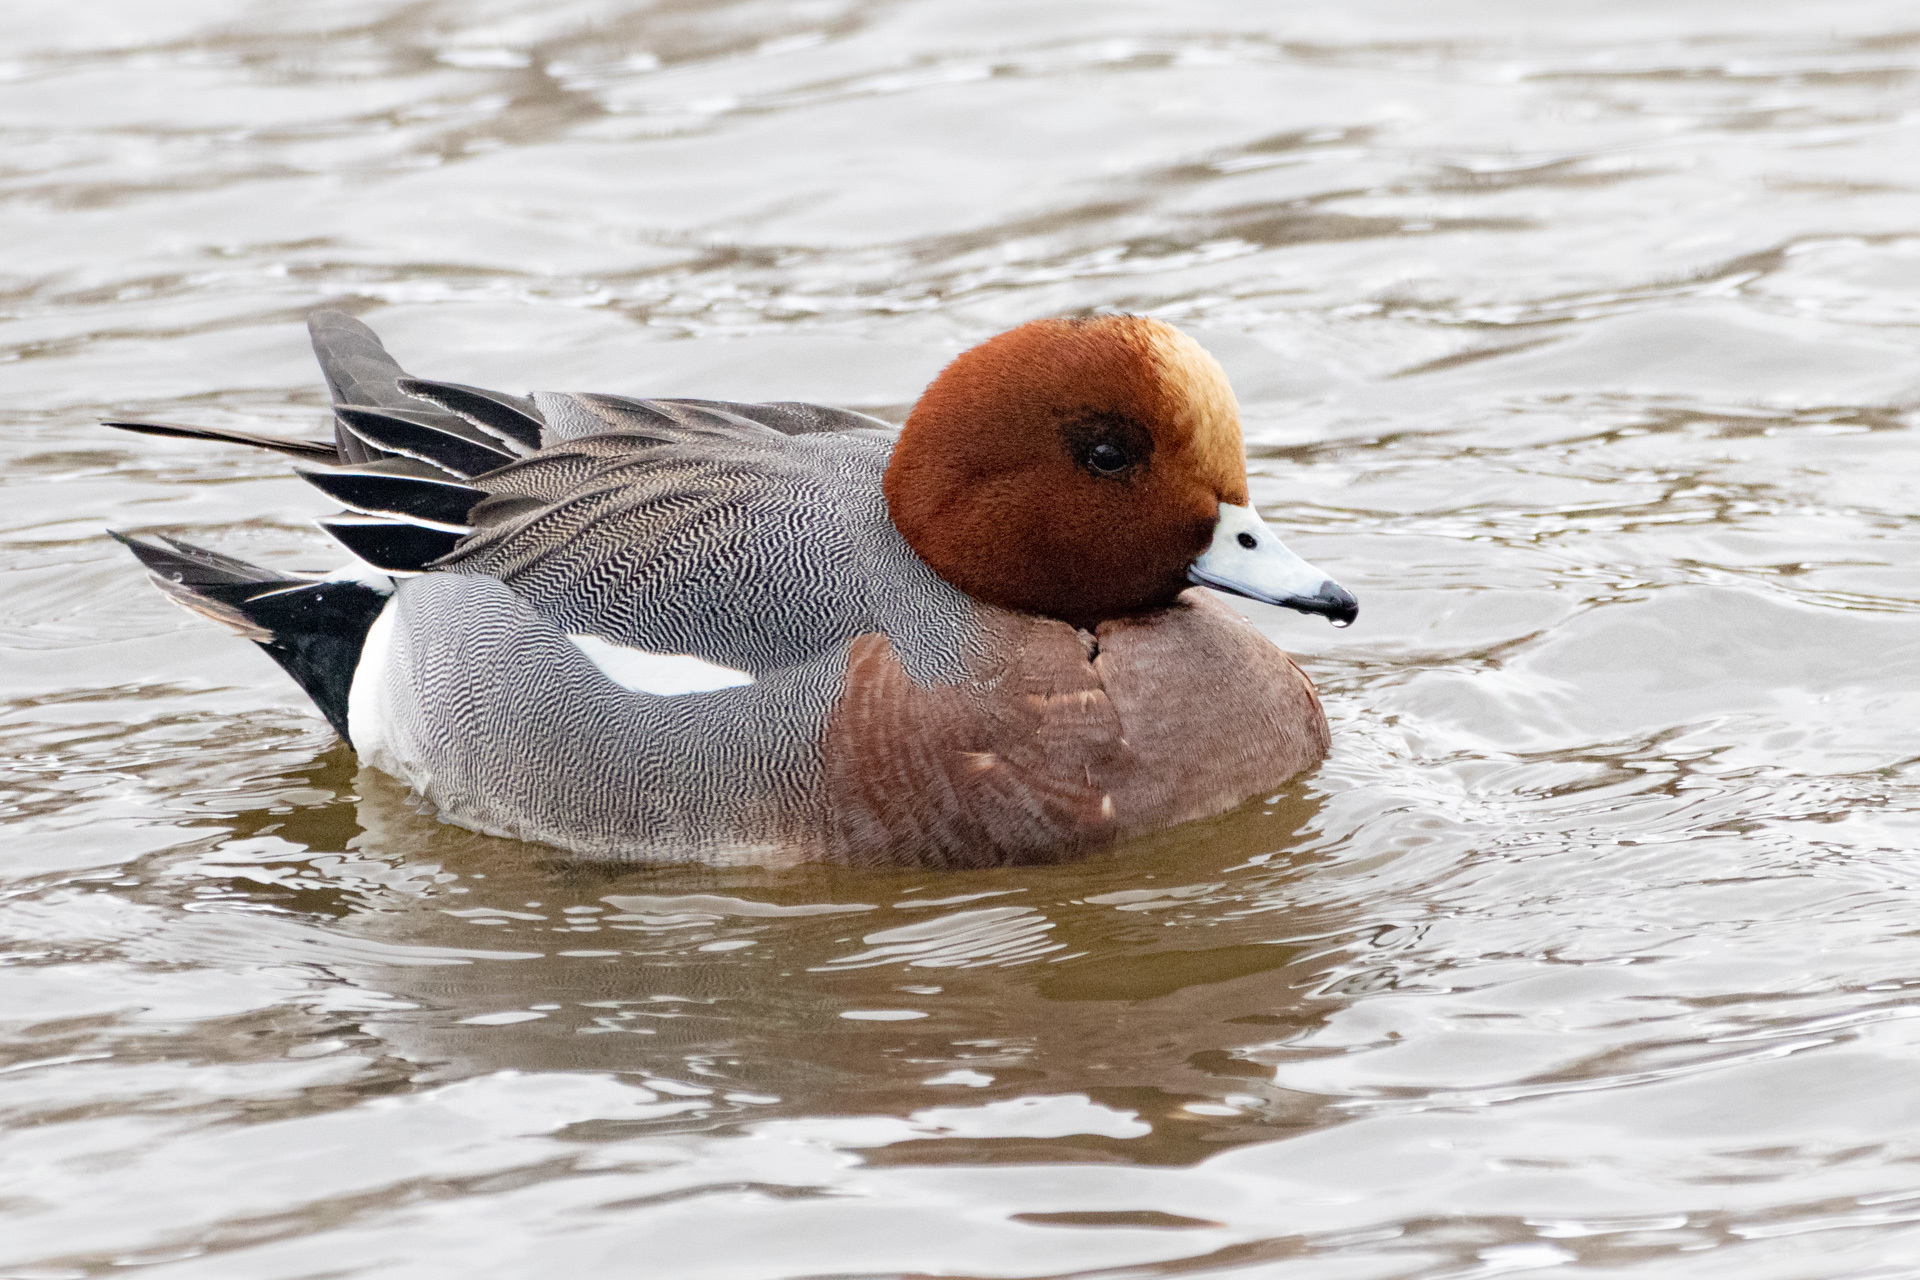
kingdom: Animalia
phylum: Chordata
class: Aves
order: Anseriformes
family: Anatidae
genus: Mareca
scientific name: Mareca penelope
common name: Eurasian wigeon
